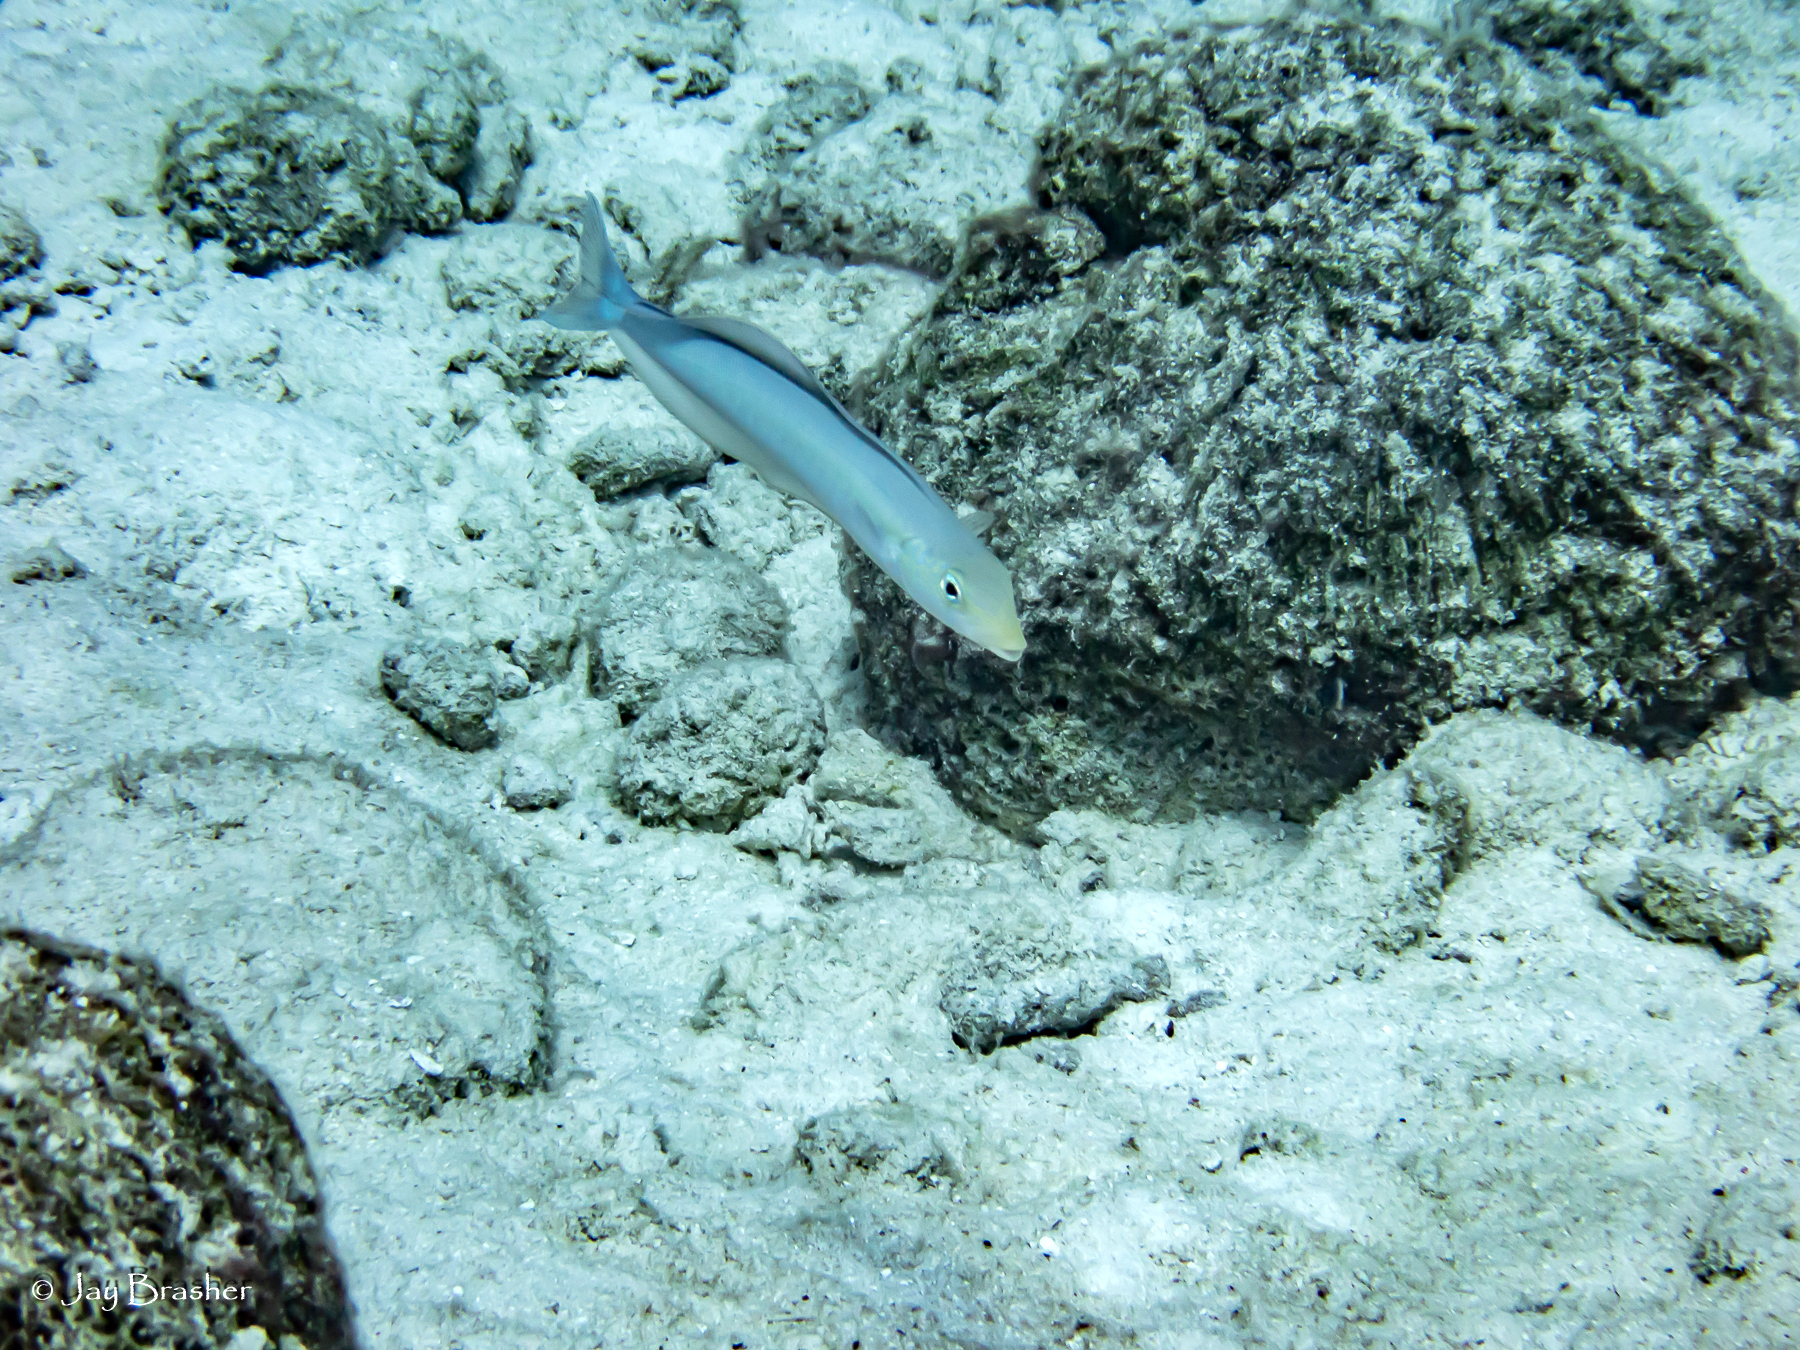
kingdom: Animalia
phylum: Chordata
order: Perciformes
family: Malacanthidae
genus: Malacanthus
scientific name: Malacanthus plumieri
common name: Sand tilefish
